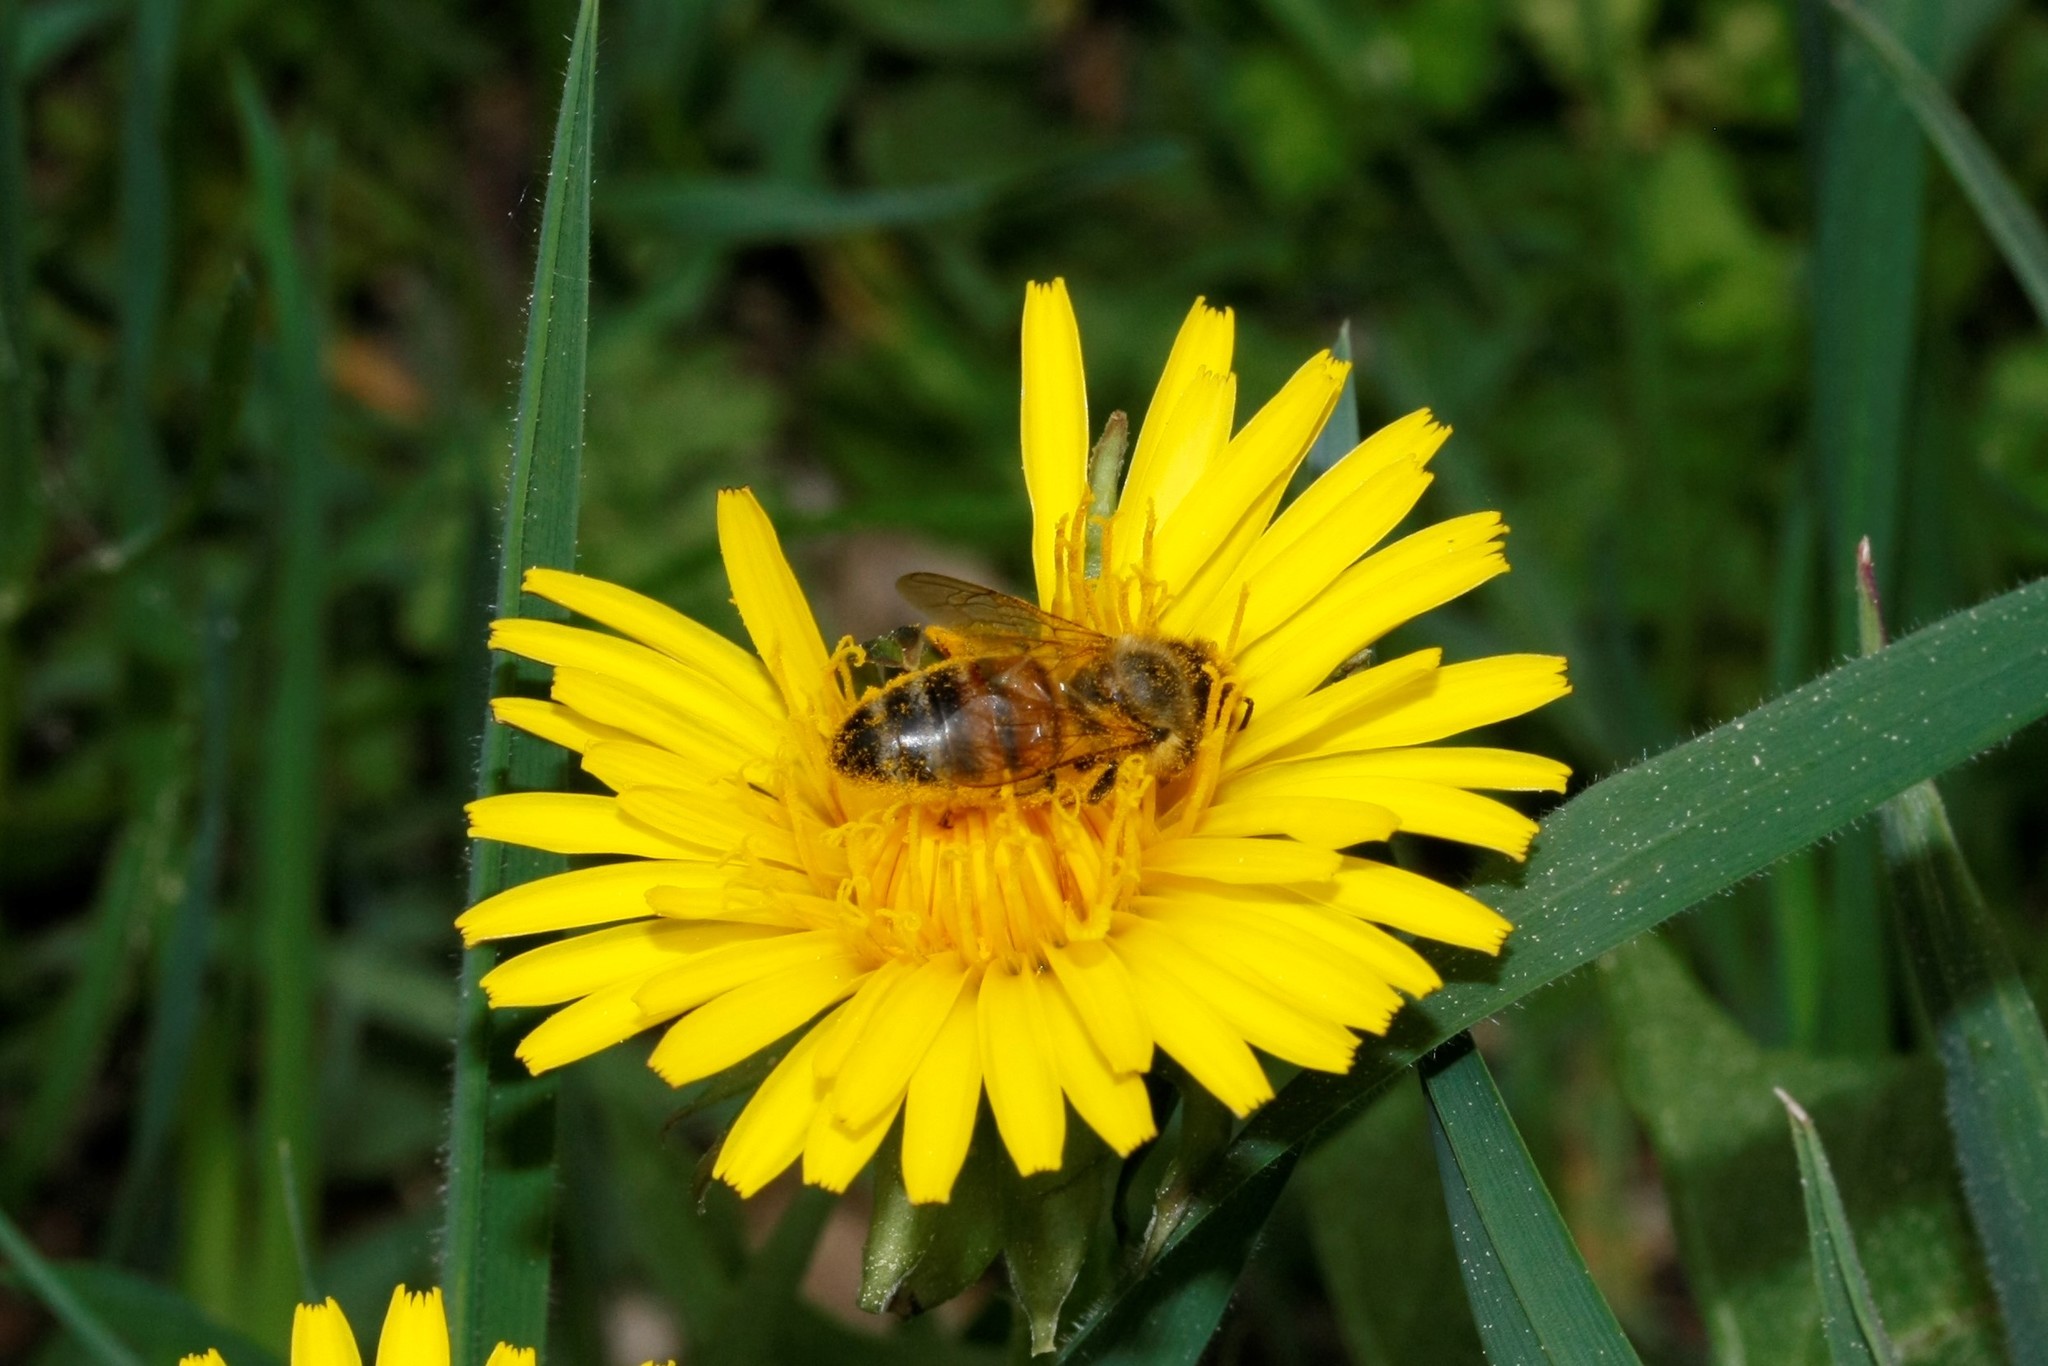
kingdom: Animalia
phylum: Arthropoda
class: Insecta
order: Hymenoptera
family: Apidae
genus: Apis
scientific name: Apis mellifera
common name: Honey bee
